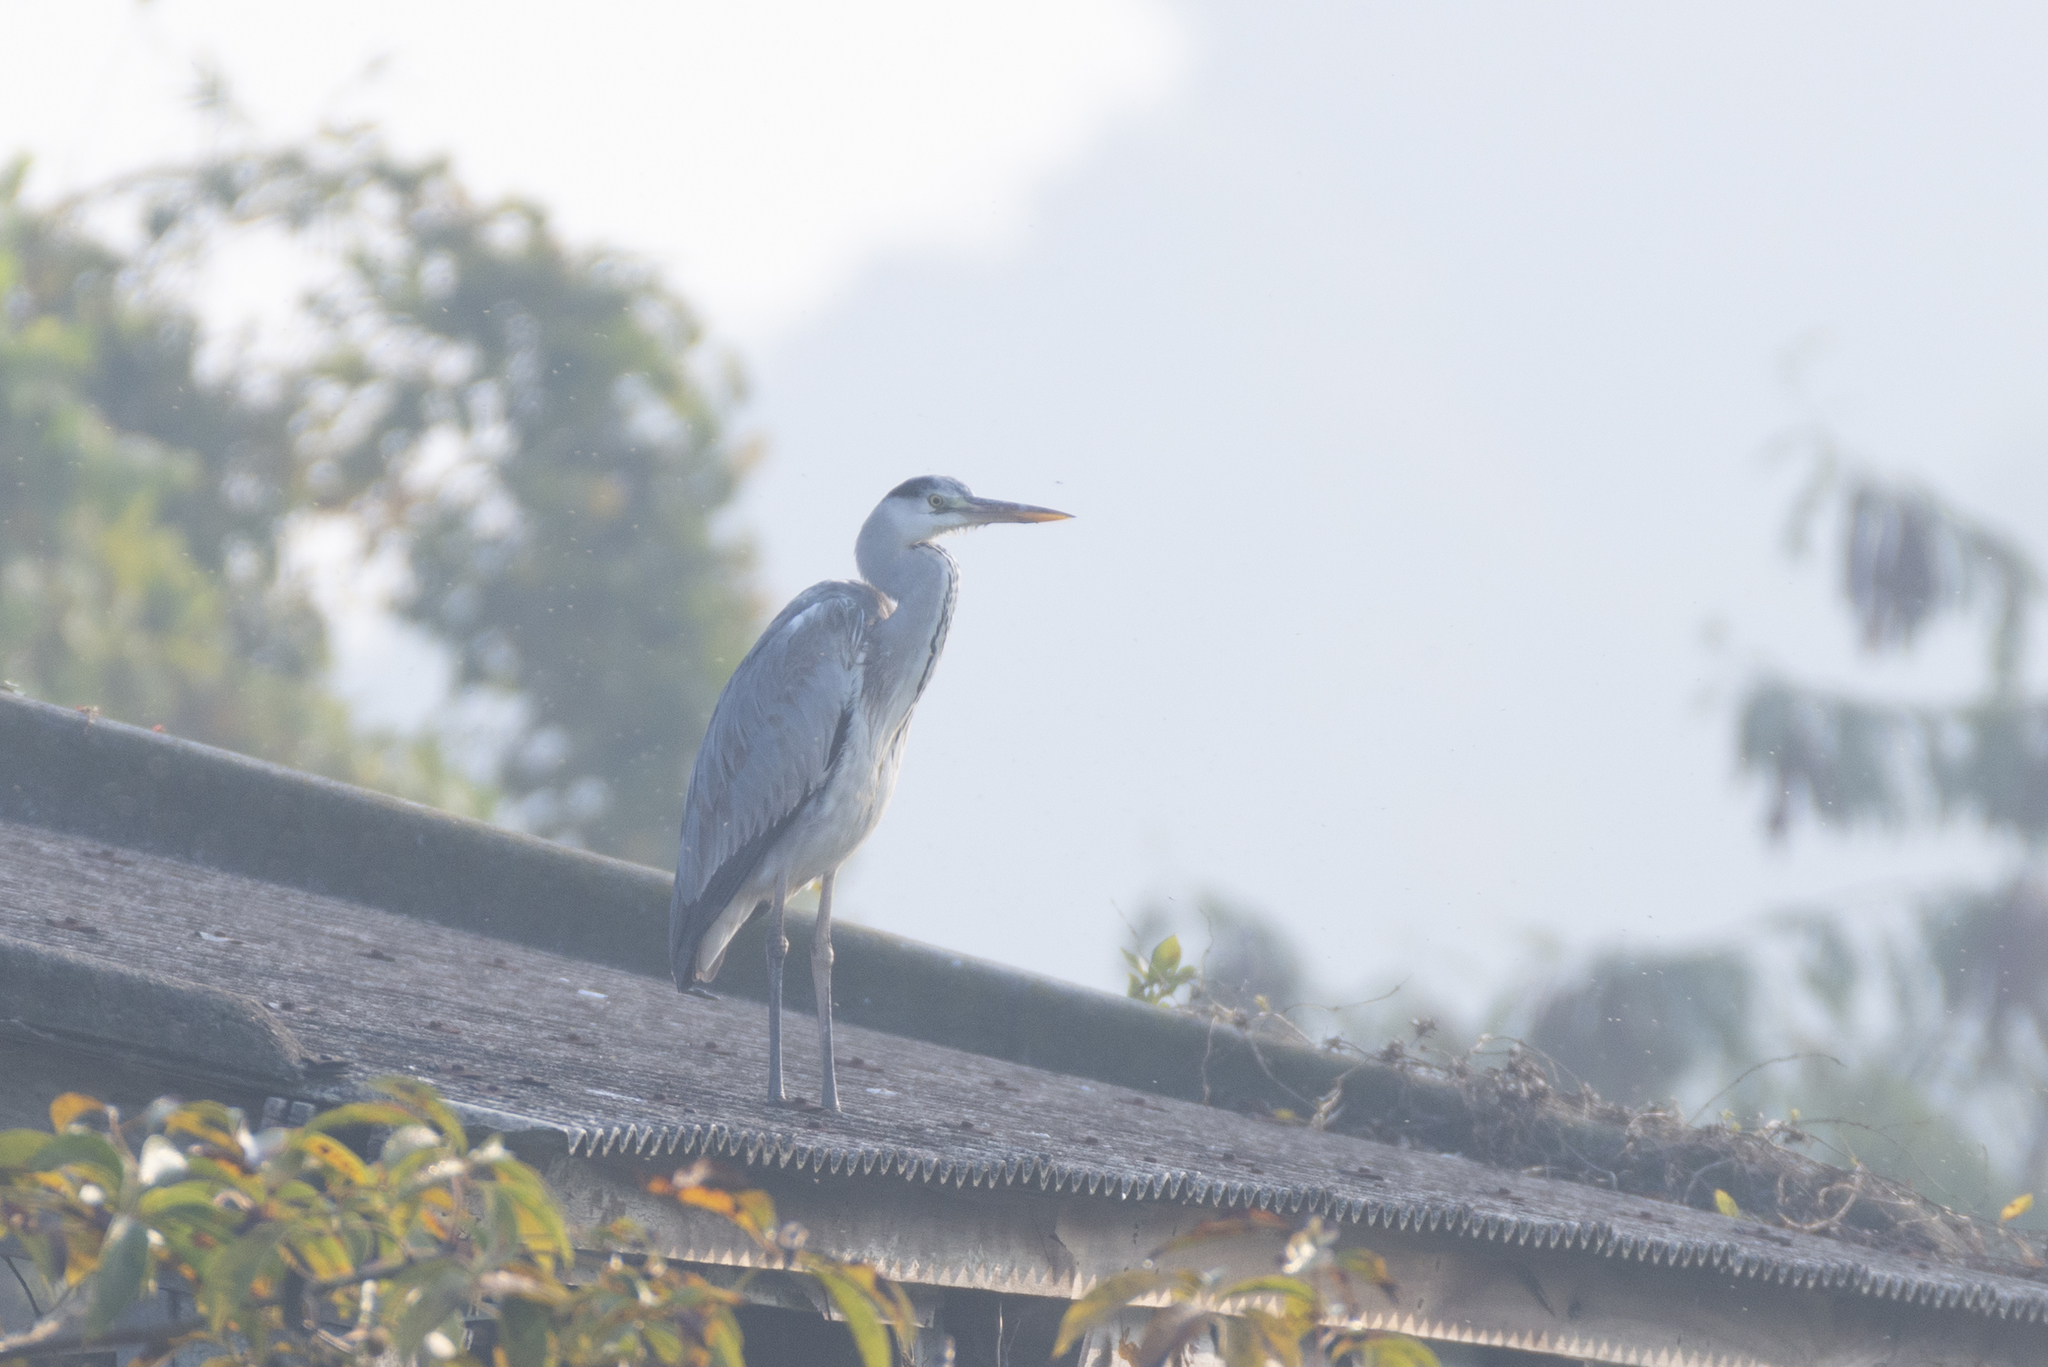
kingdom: Animalia
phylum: Chordata
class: Aves
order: Pelecaniformes
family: Ardeidae
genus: Ardea
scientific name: Ardea cinerea
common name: Grey heron
